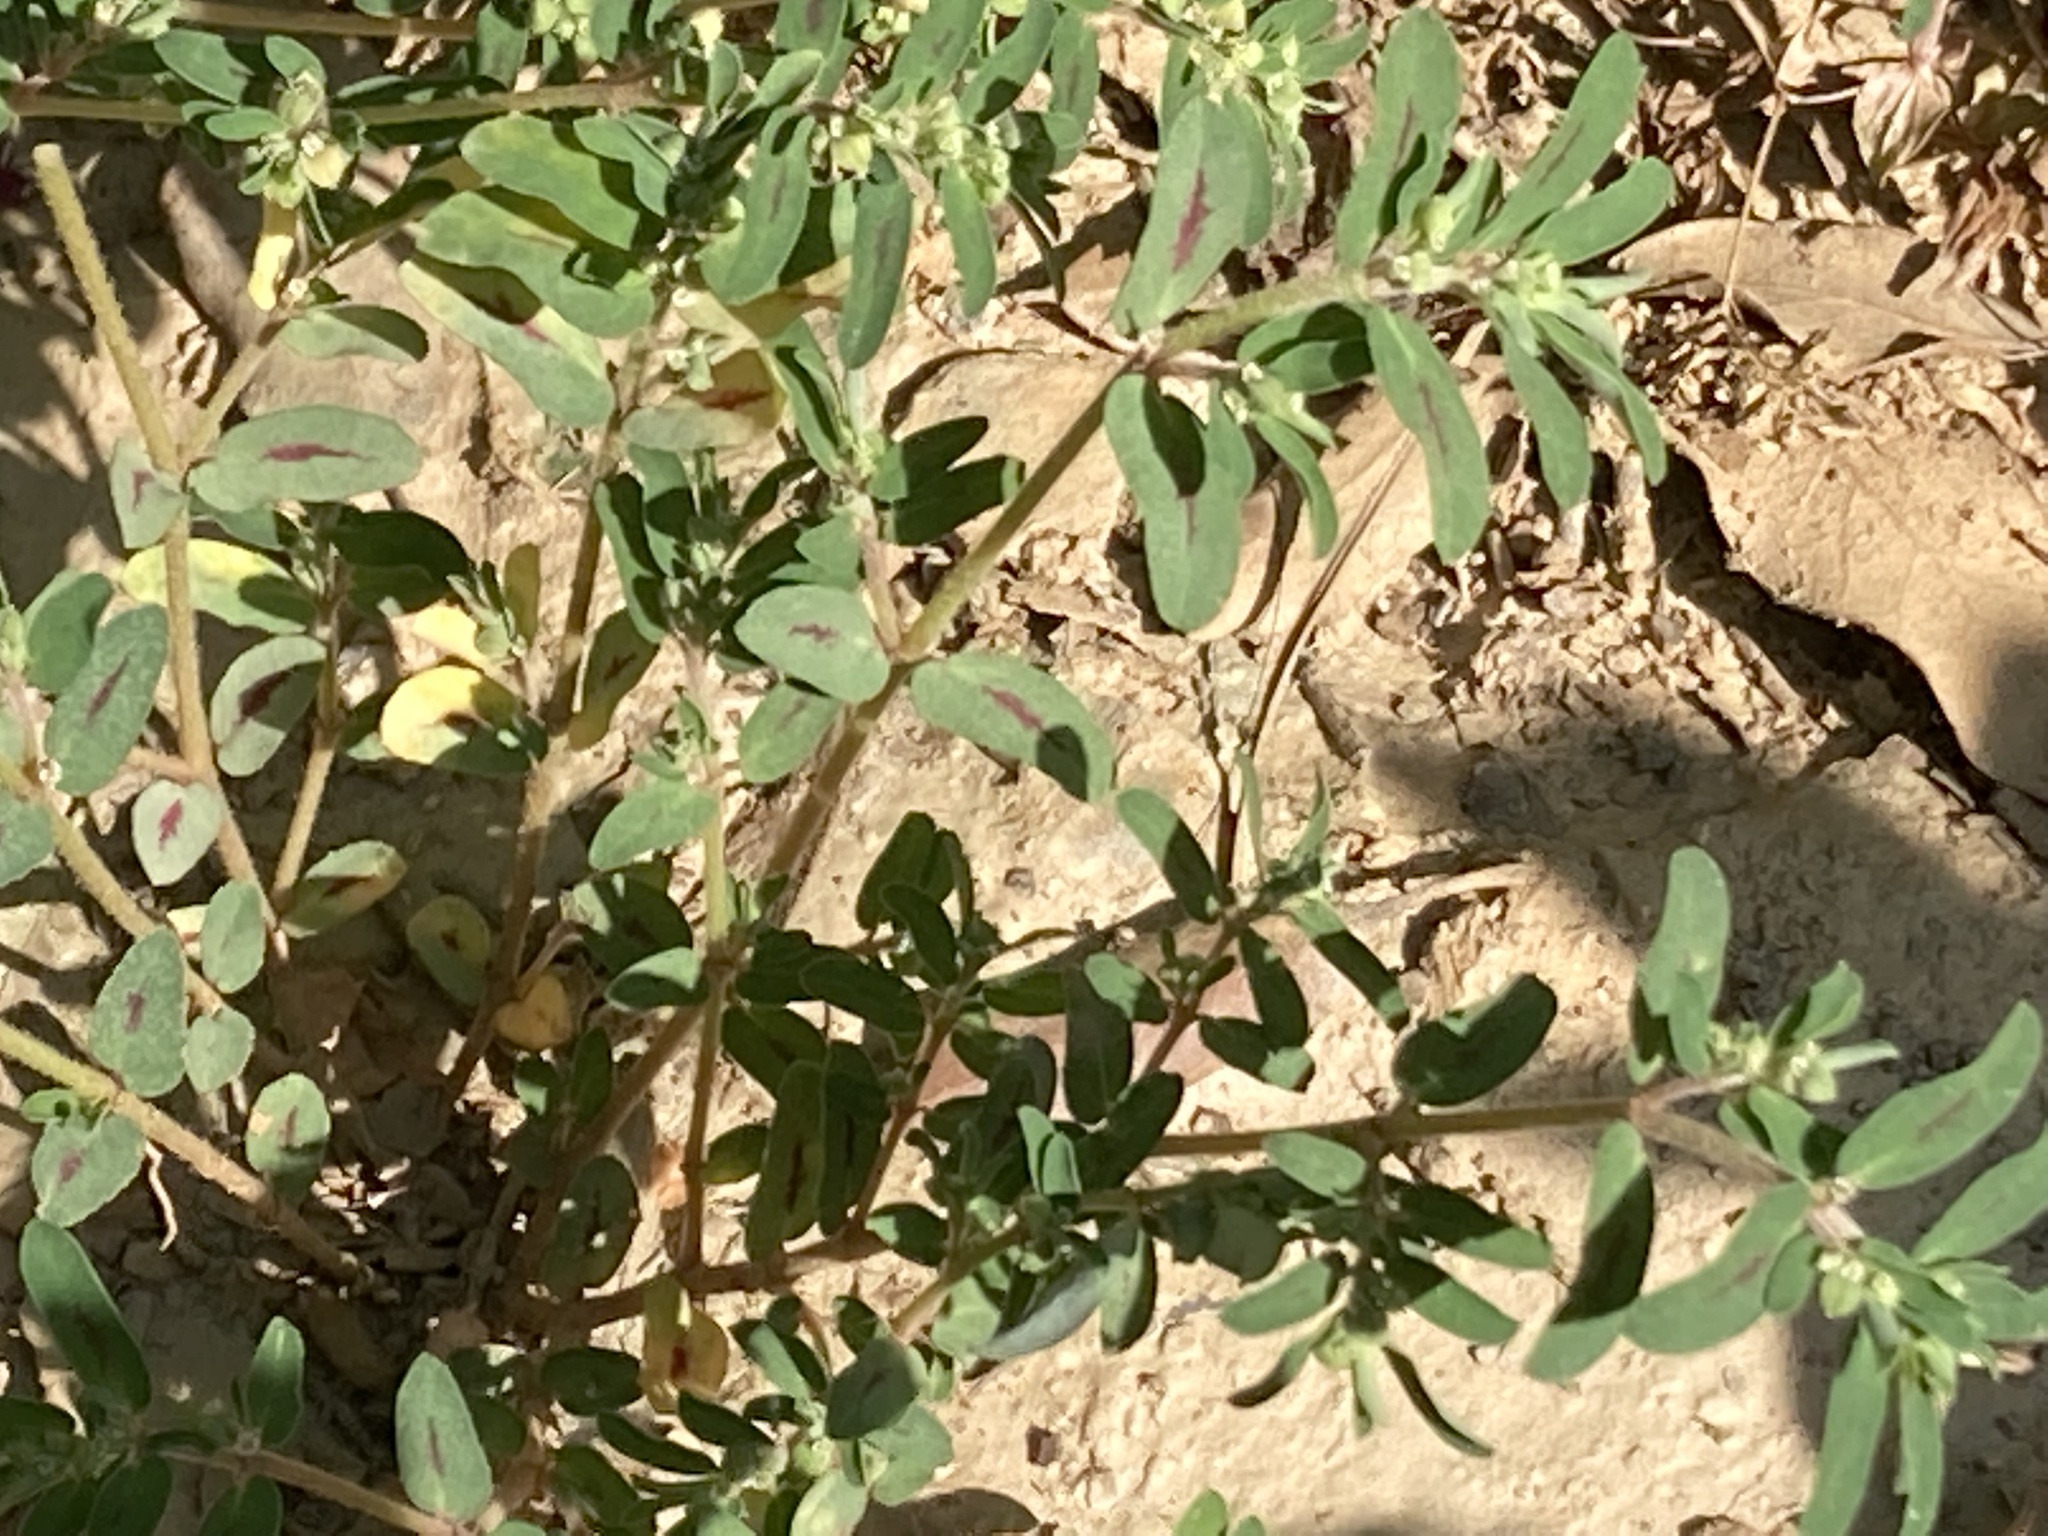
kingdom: Plantae
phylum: Tracheophyta
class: Magnoliopsida
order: Malpighiales
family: Euphorbiaceae
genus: Euphorbia
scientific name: Euphorbia maculata
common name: Spotted spurge
